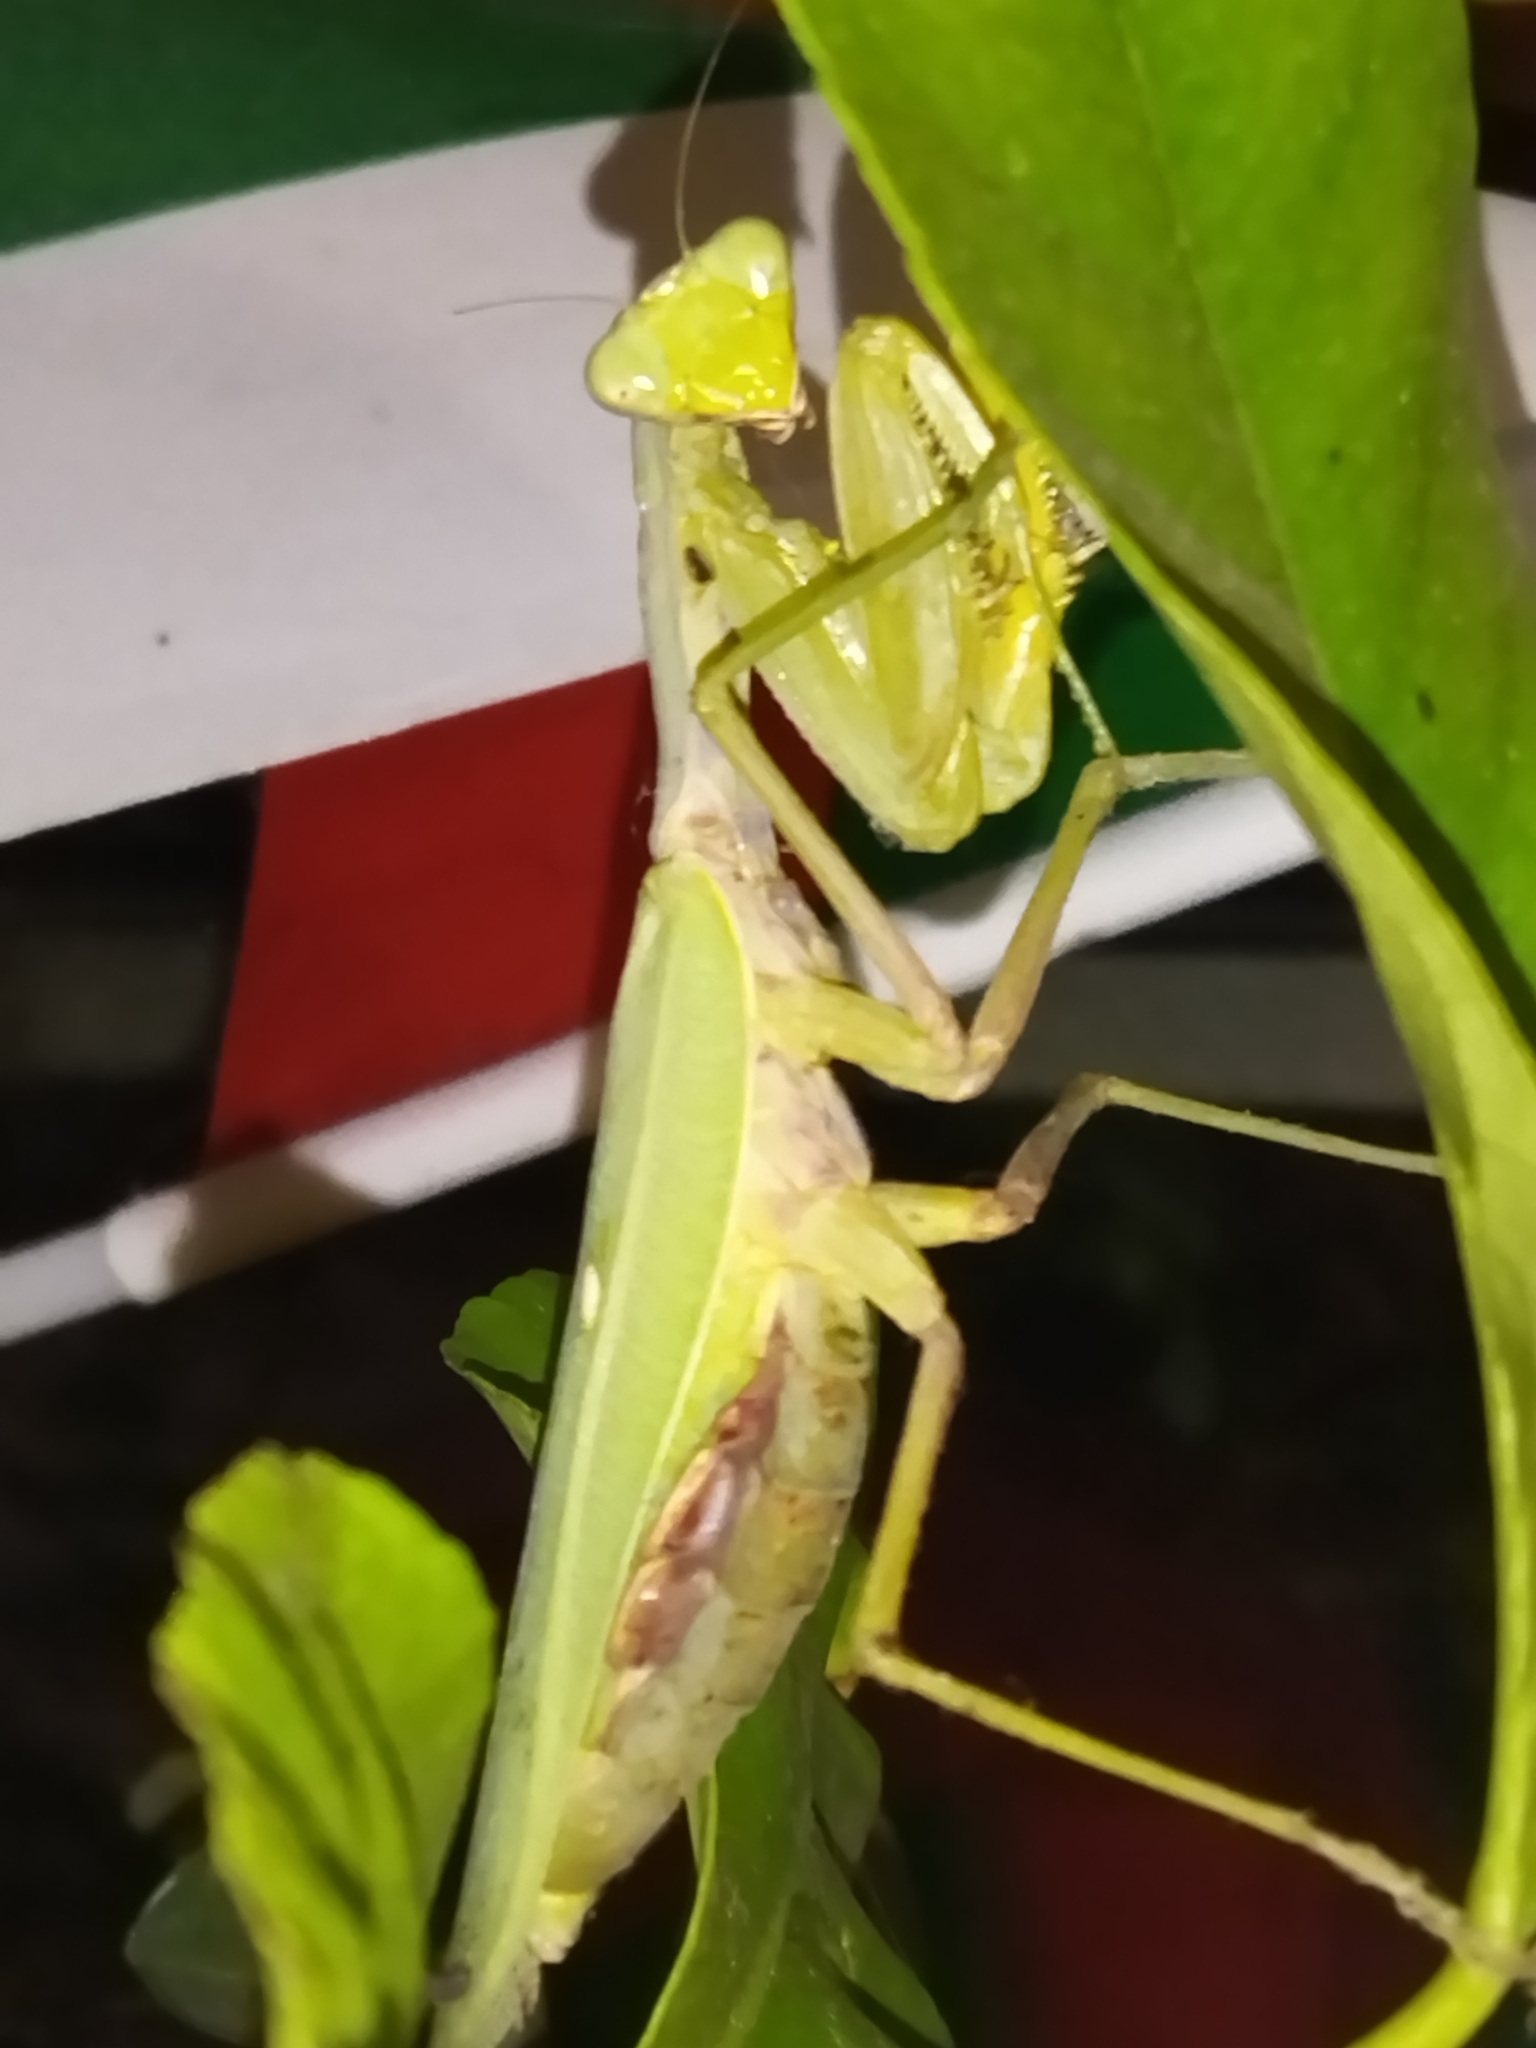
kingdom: Animalia
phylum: Arthropoda
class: Insecta
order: Mantodea
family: Mantidae
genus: Hierodula
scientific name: Hierodula transcaucasica
